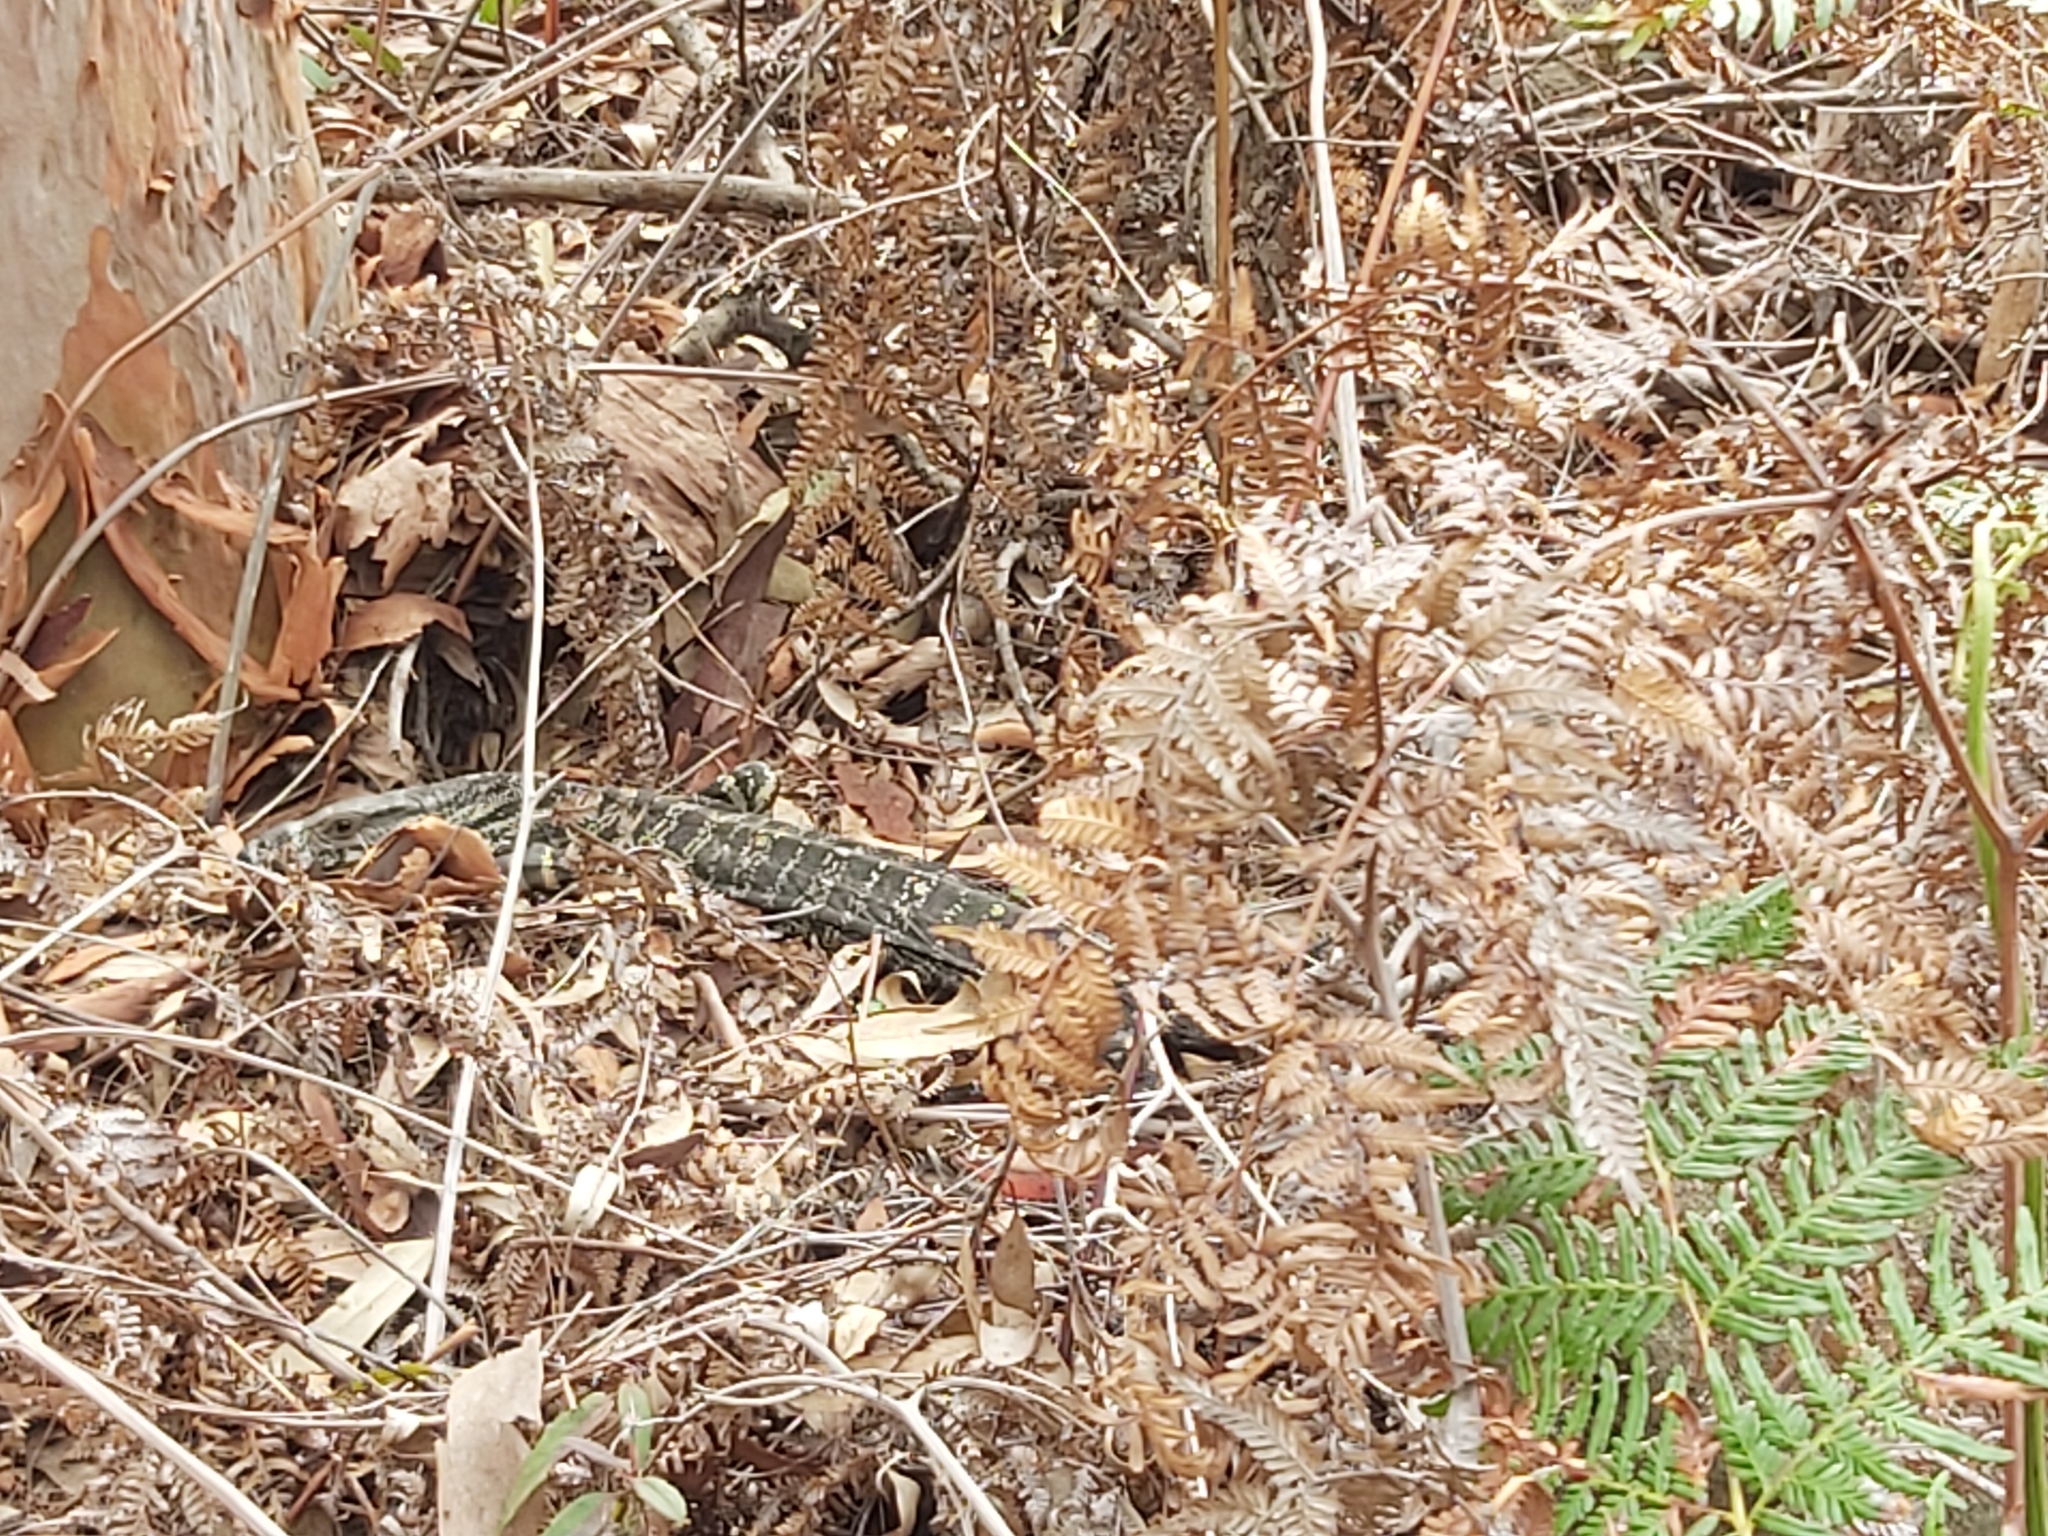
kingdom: Animalia
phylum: Chordata
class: Squamata
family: Varanidae
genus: Varanus
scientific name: Varanus varius
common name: Lace monitor
